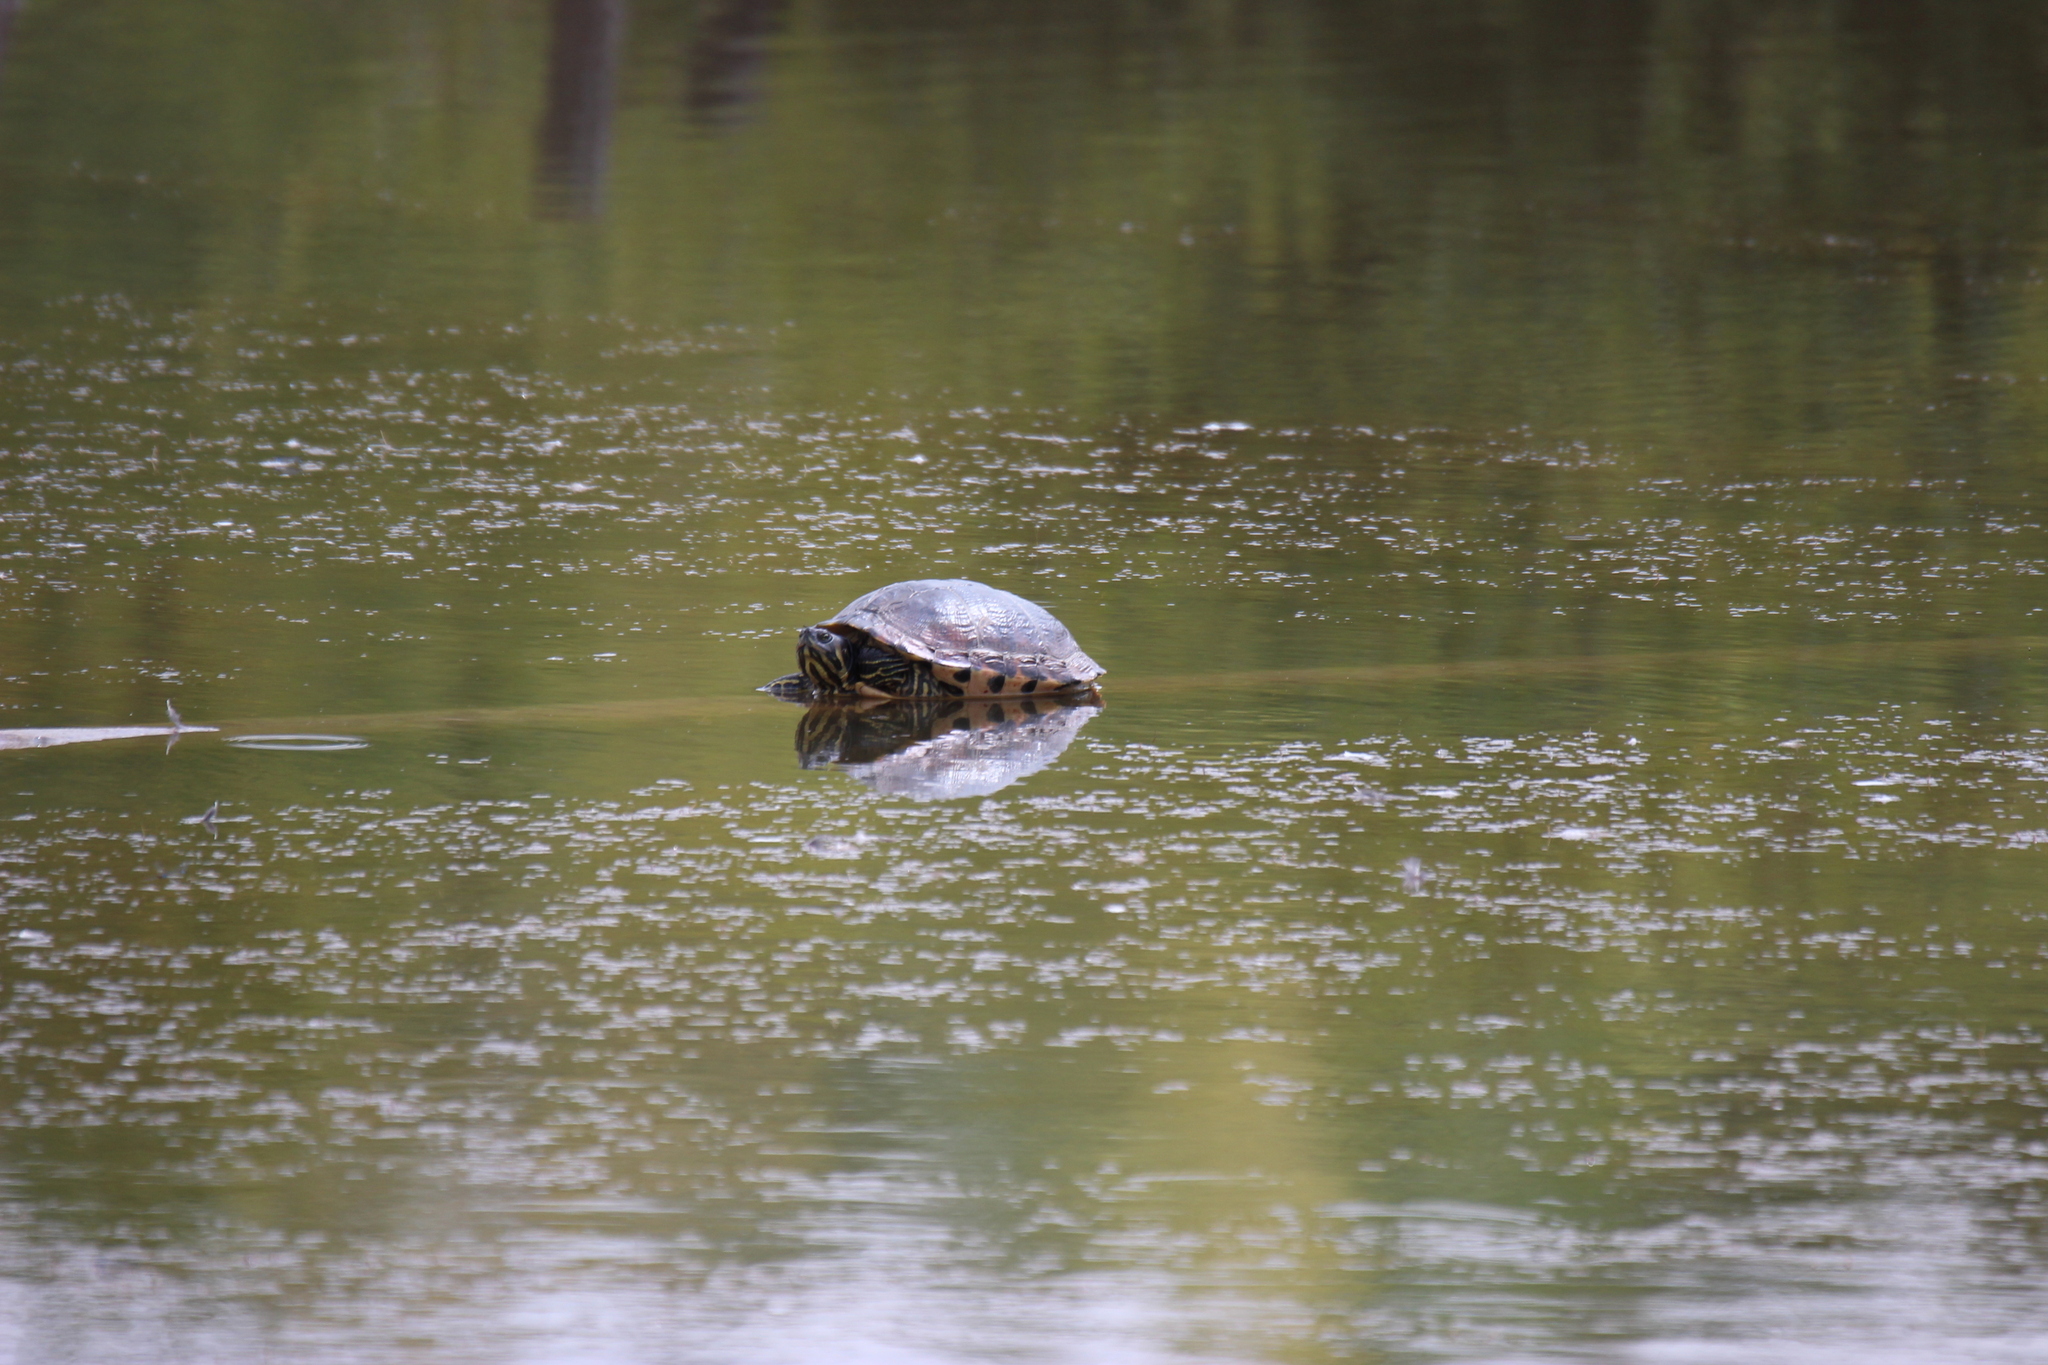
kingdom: Animalia
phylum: Chordata
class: Testudines
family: Emydidae
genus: Trachemys
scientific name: Trachemys scripta
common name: Slider
